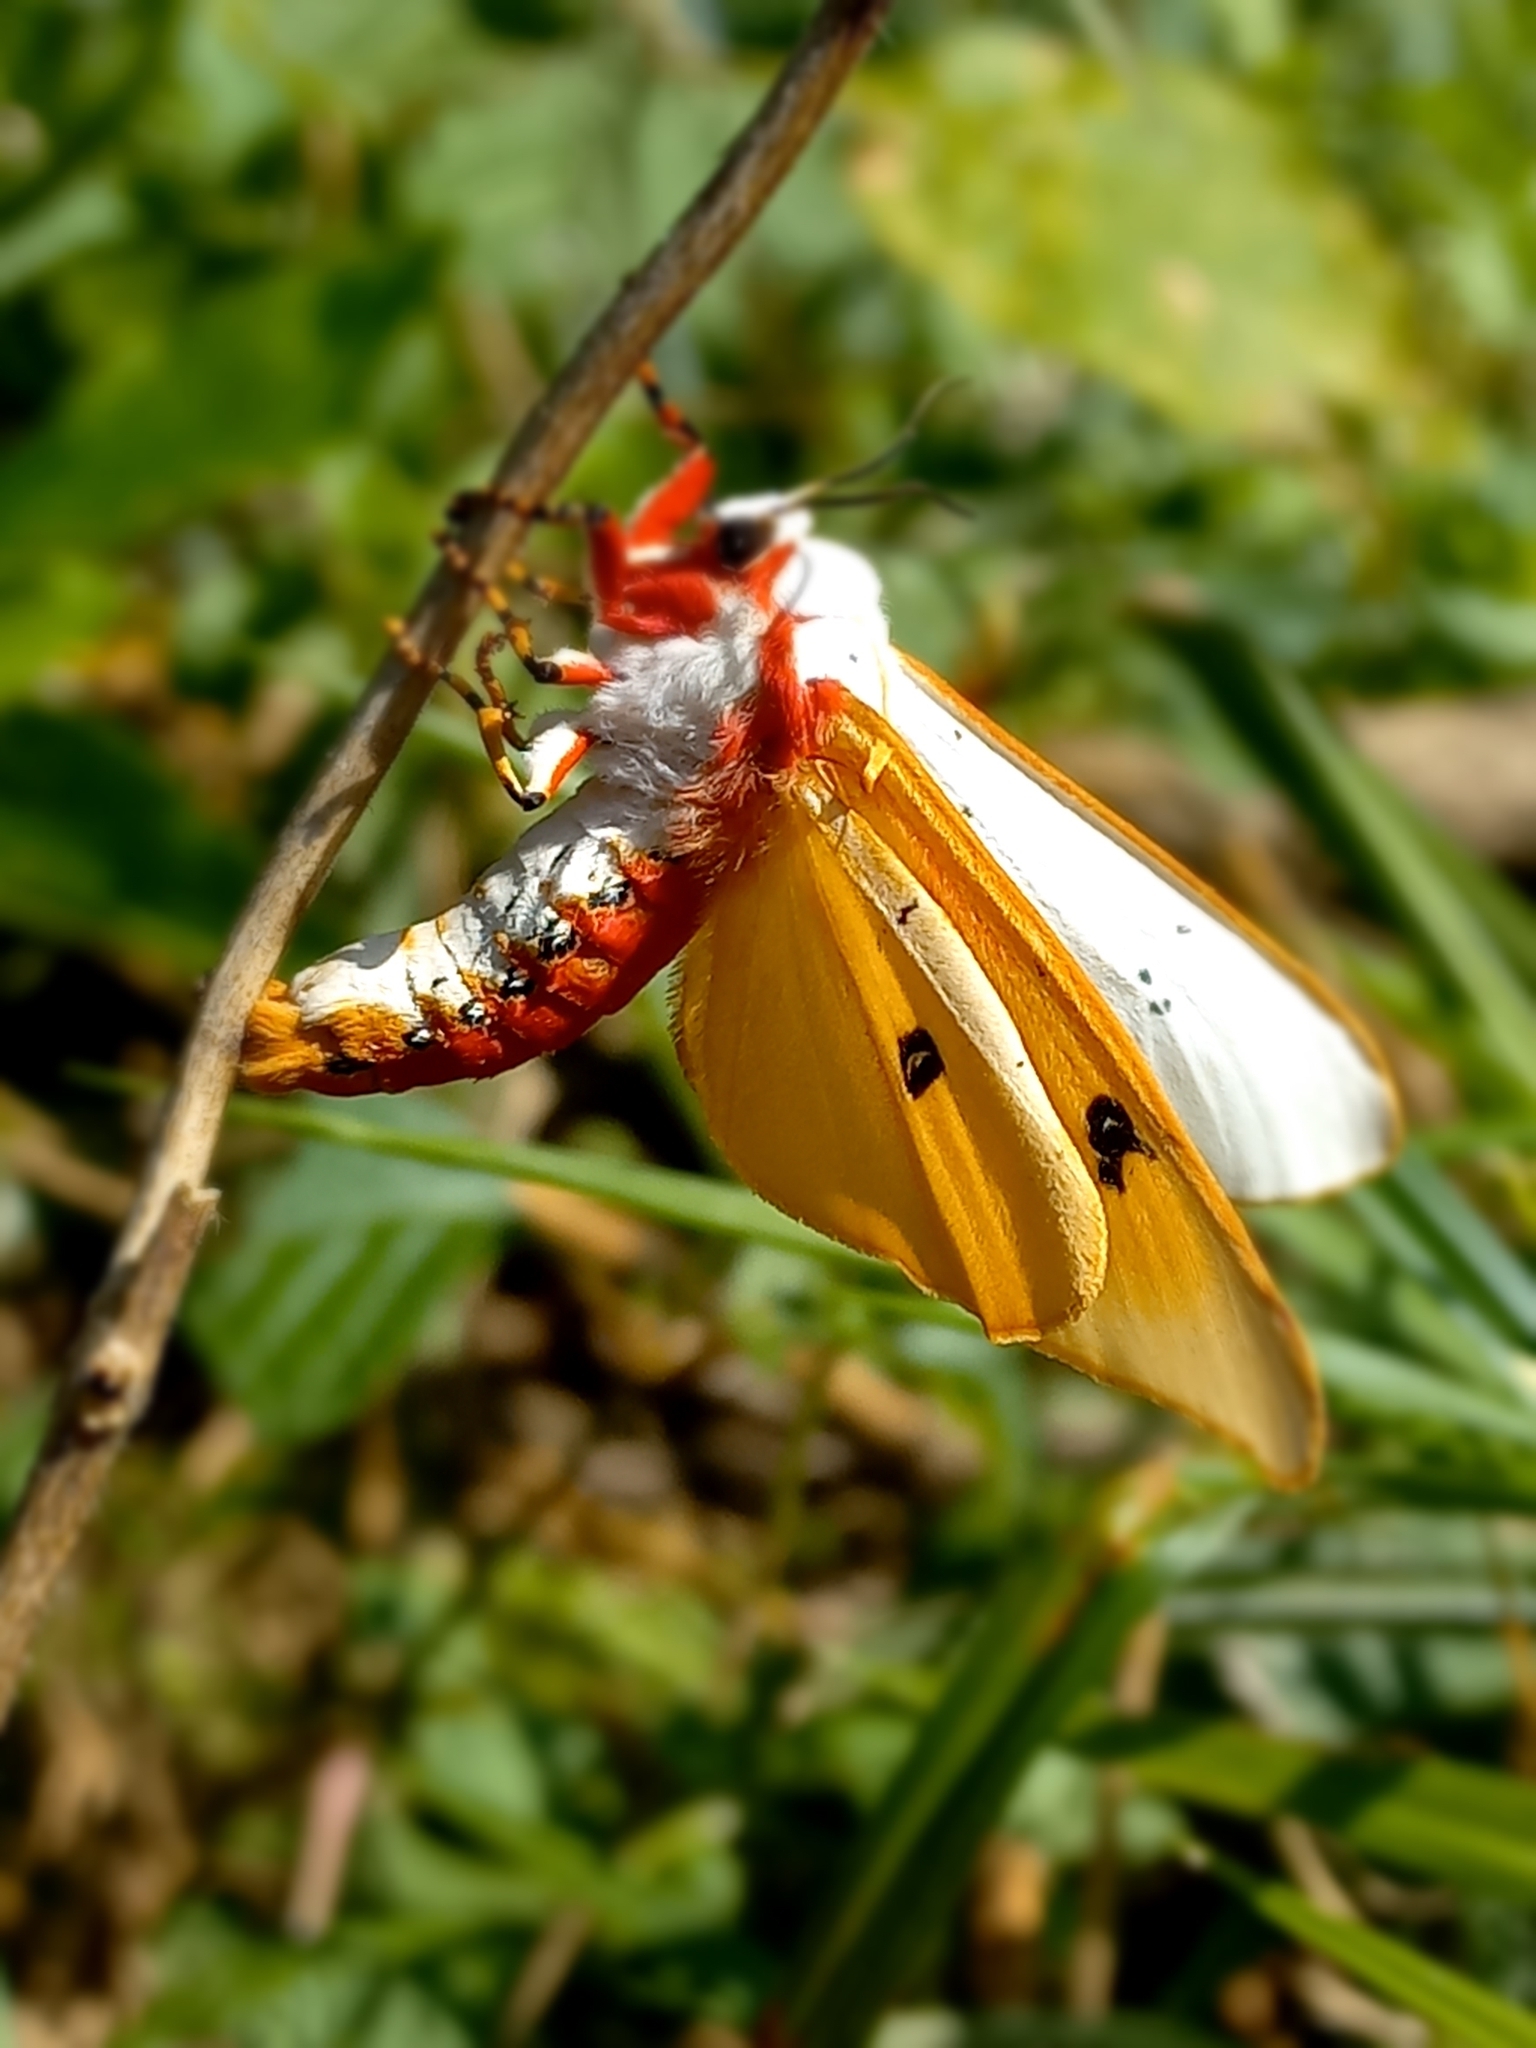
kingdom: Animalia
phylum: Arthropoda
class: Insecta
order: Lepidoptera
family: Erebidae
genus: Rhodogastria
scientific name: Rhodogastria similis
